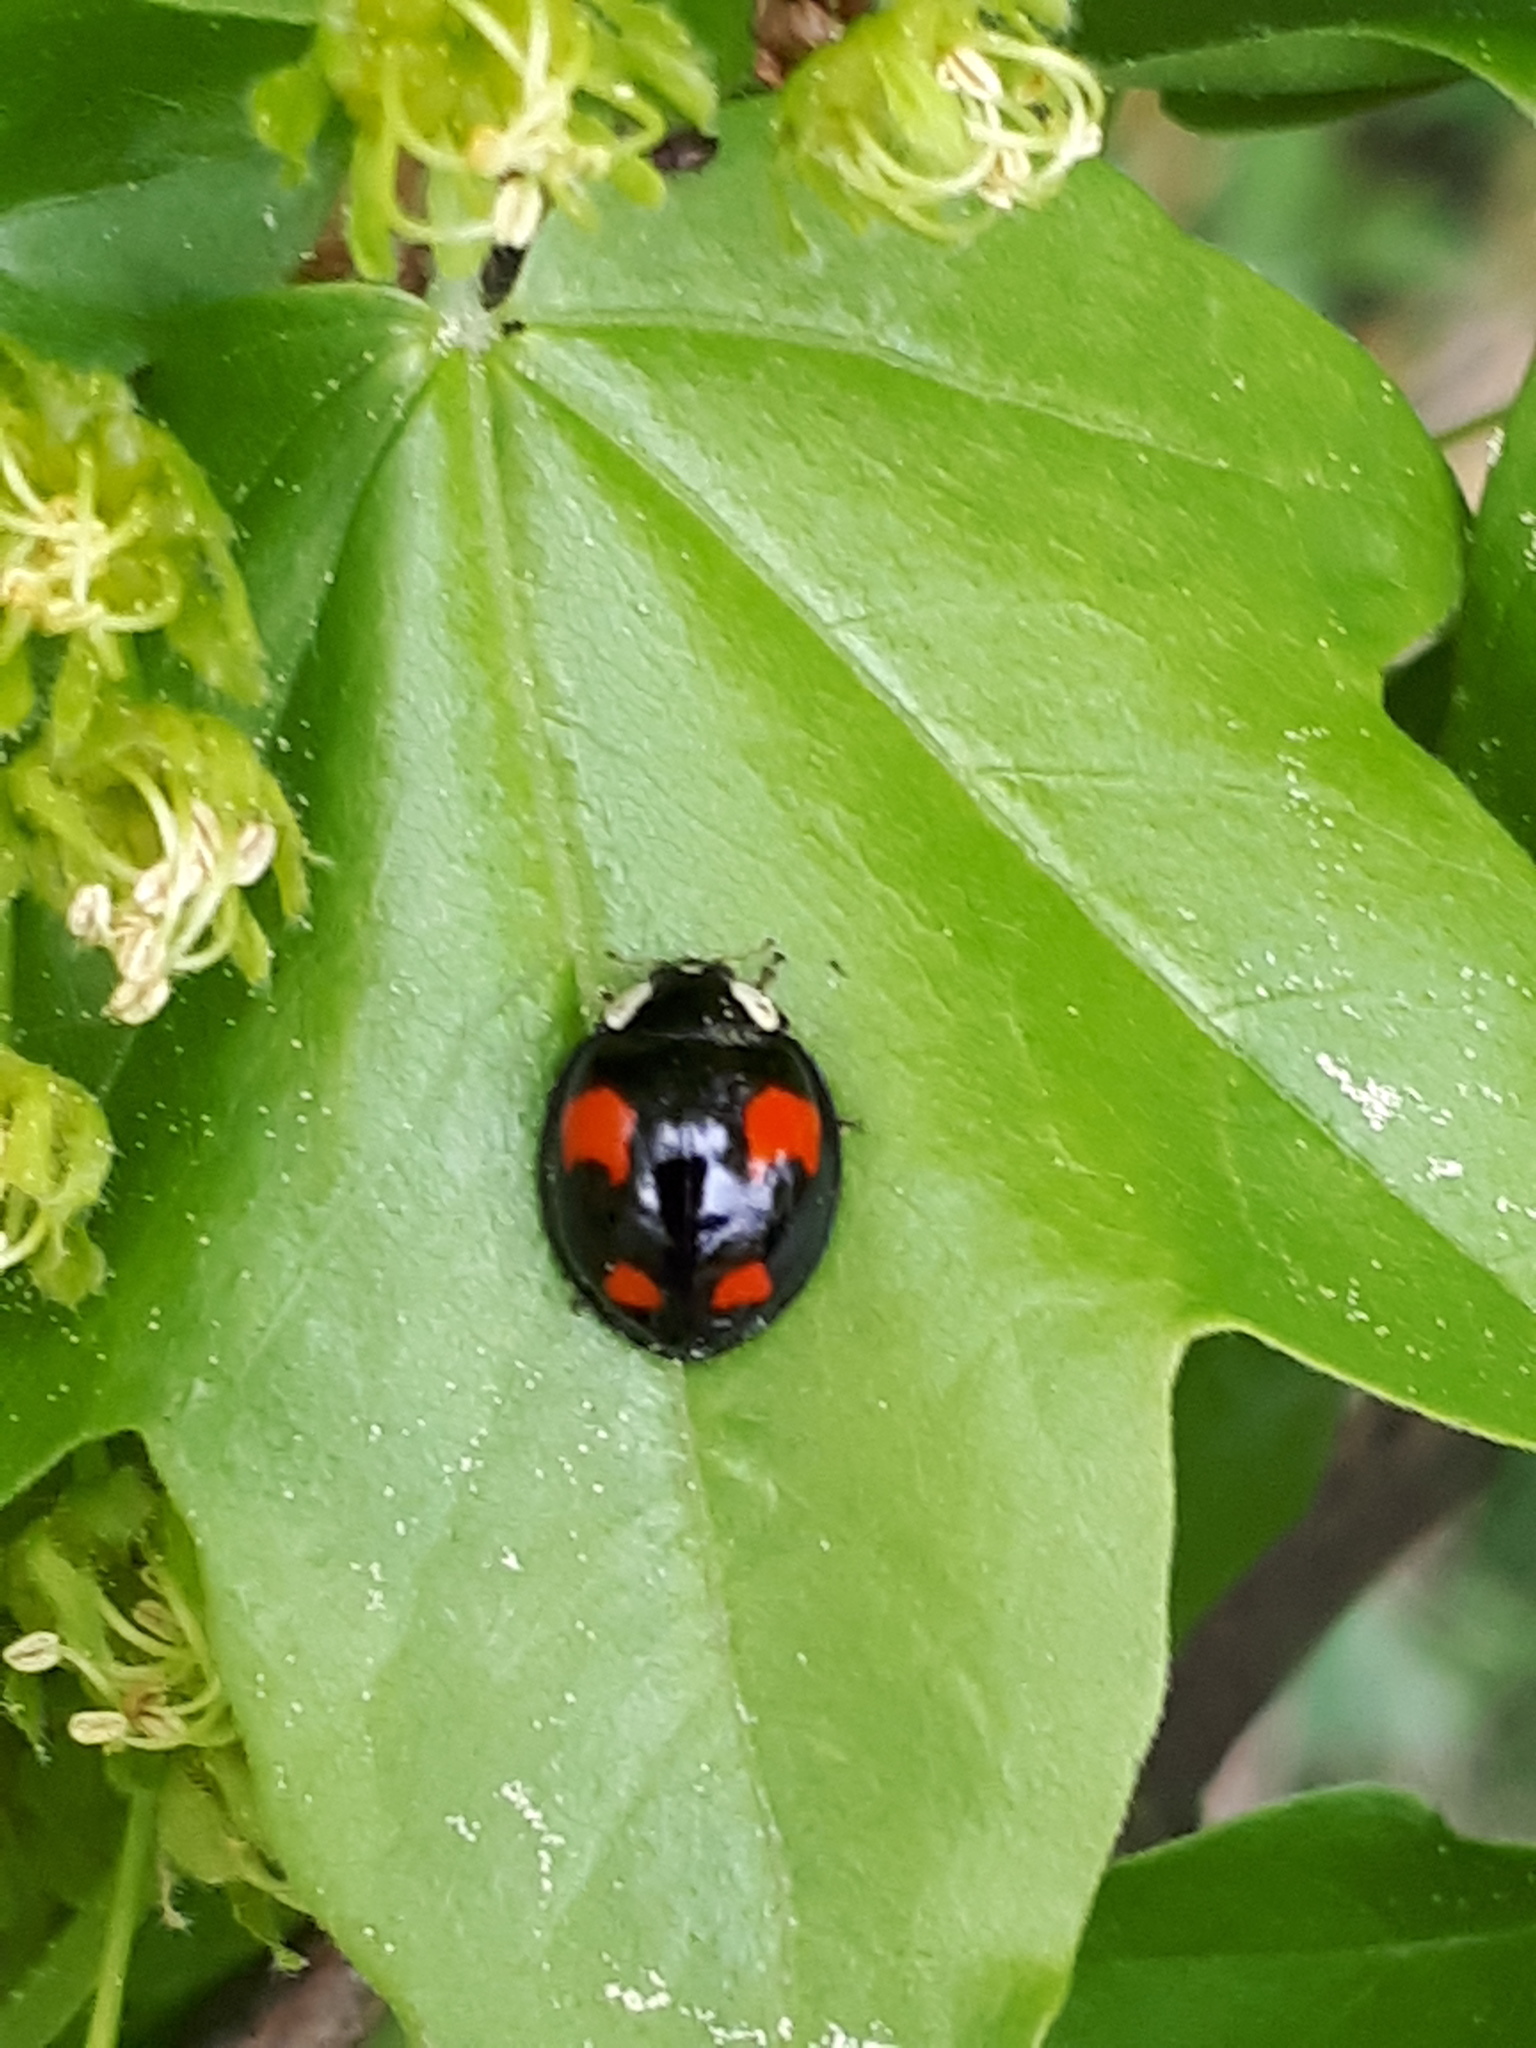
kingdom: Animalia
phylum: Arthropoda
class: Insecta
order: Coleoptera
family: Coccinellidae
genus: Harmonia
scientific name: Harmonia axyridis
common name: Harlequin ladybird
